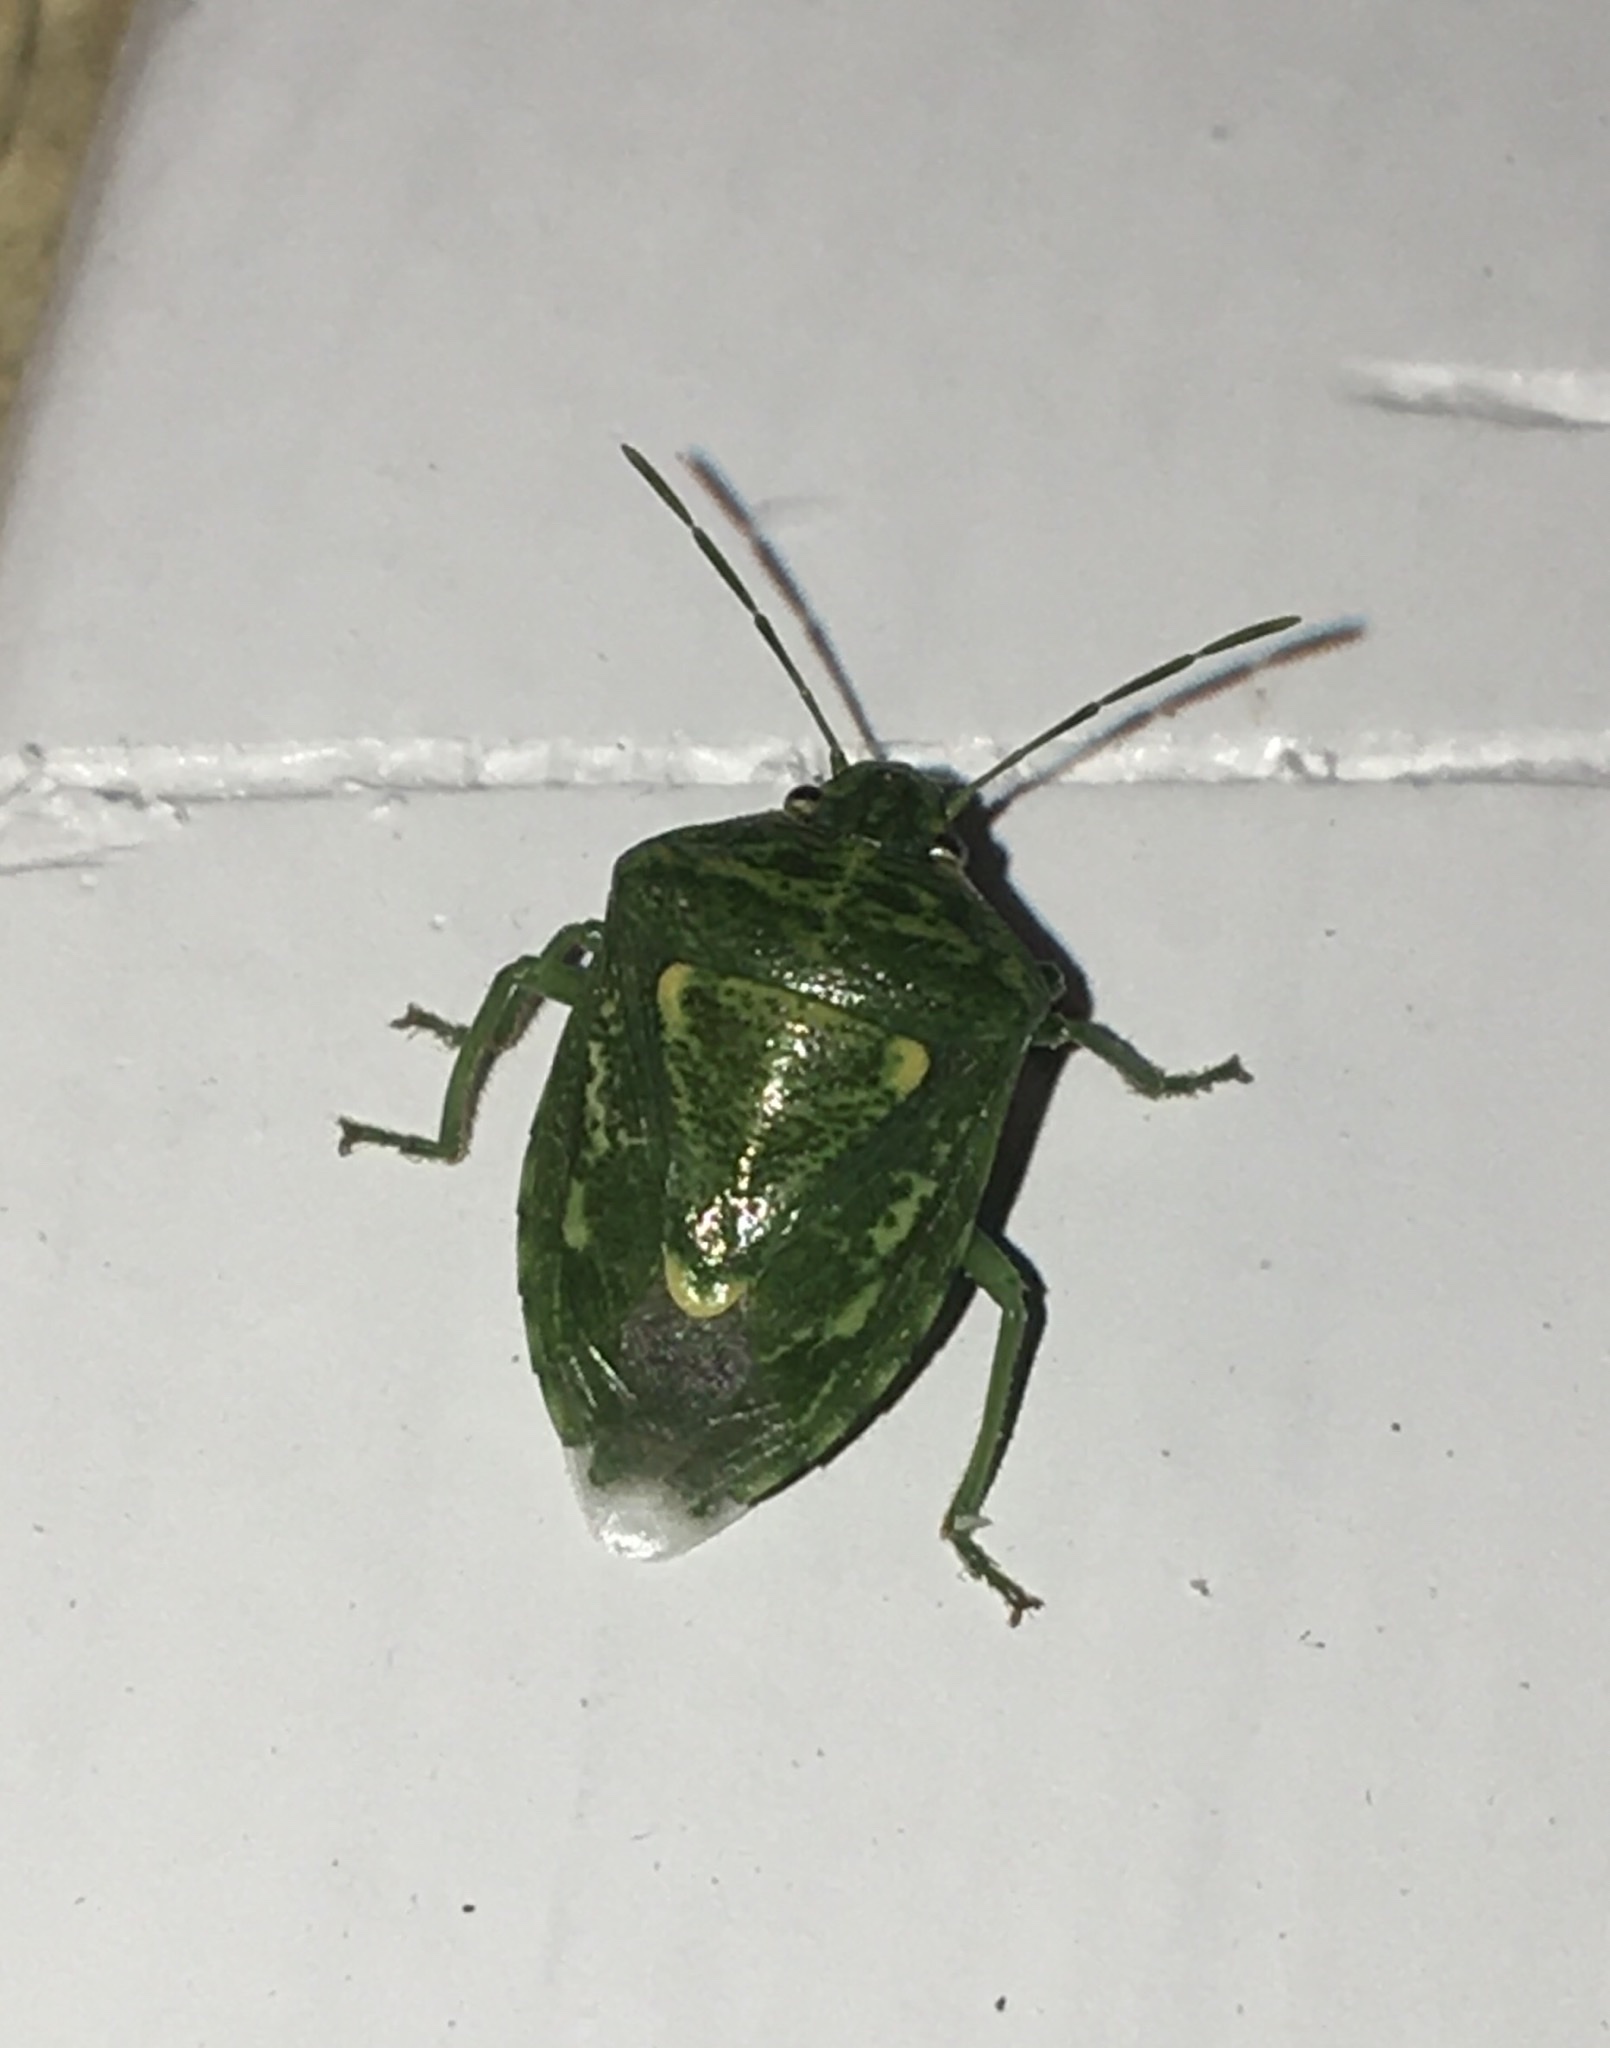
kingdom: Animalia
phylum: Arthropoda
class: Insecta
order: Hemiptera
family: Pentatomidae
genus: Banasa
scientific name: Banasa euchlora
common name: Cedar berry bug
